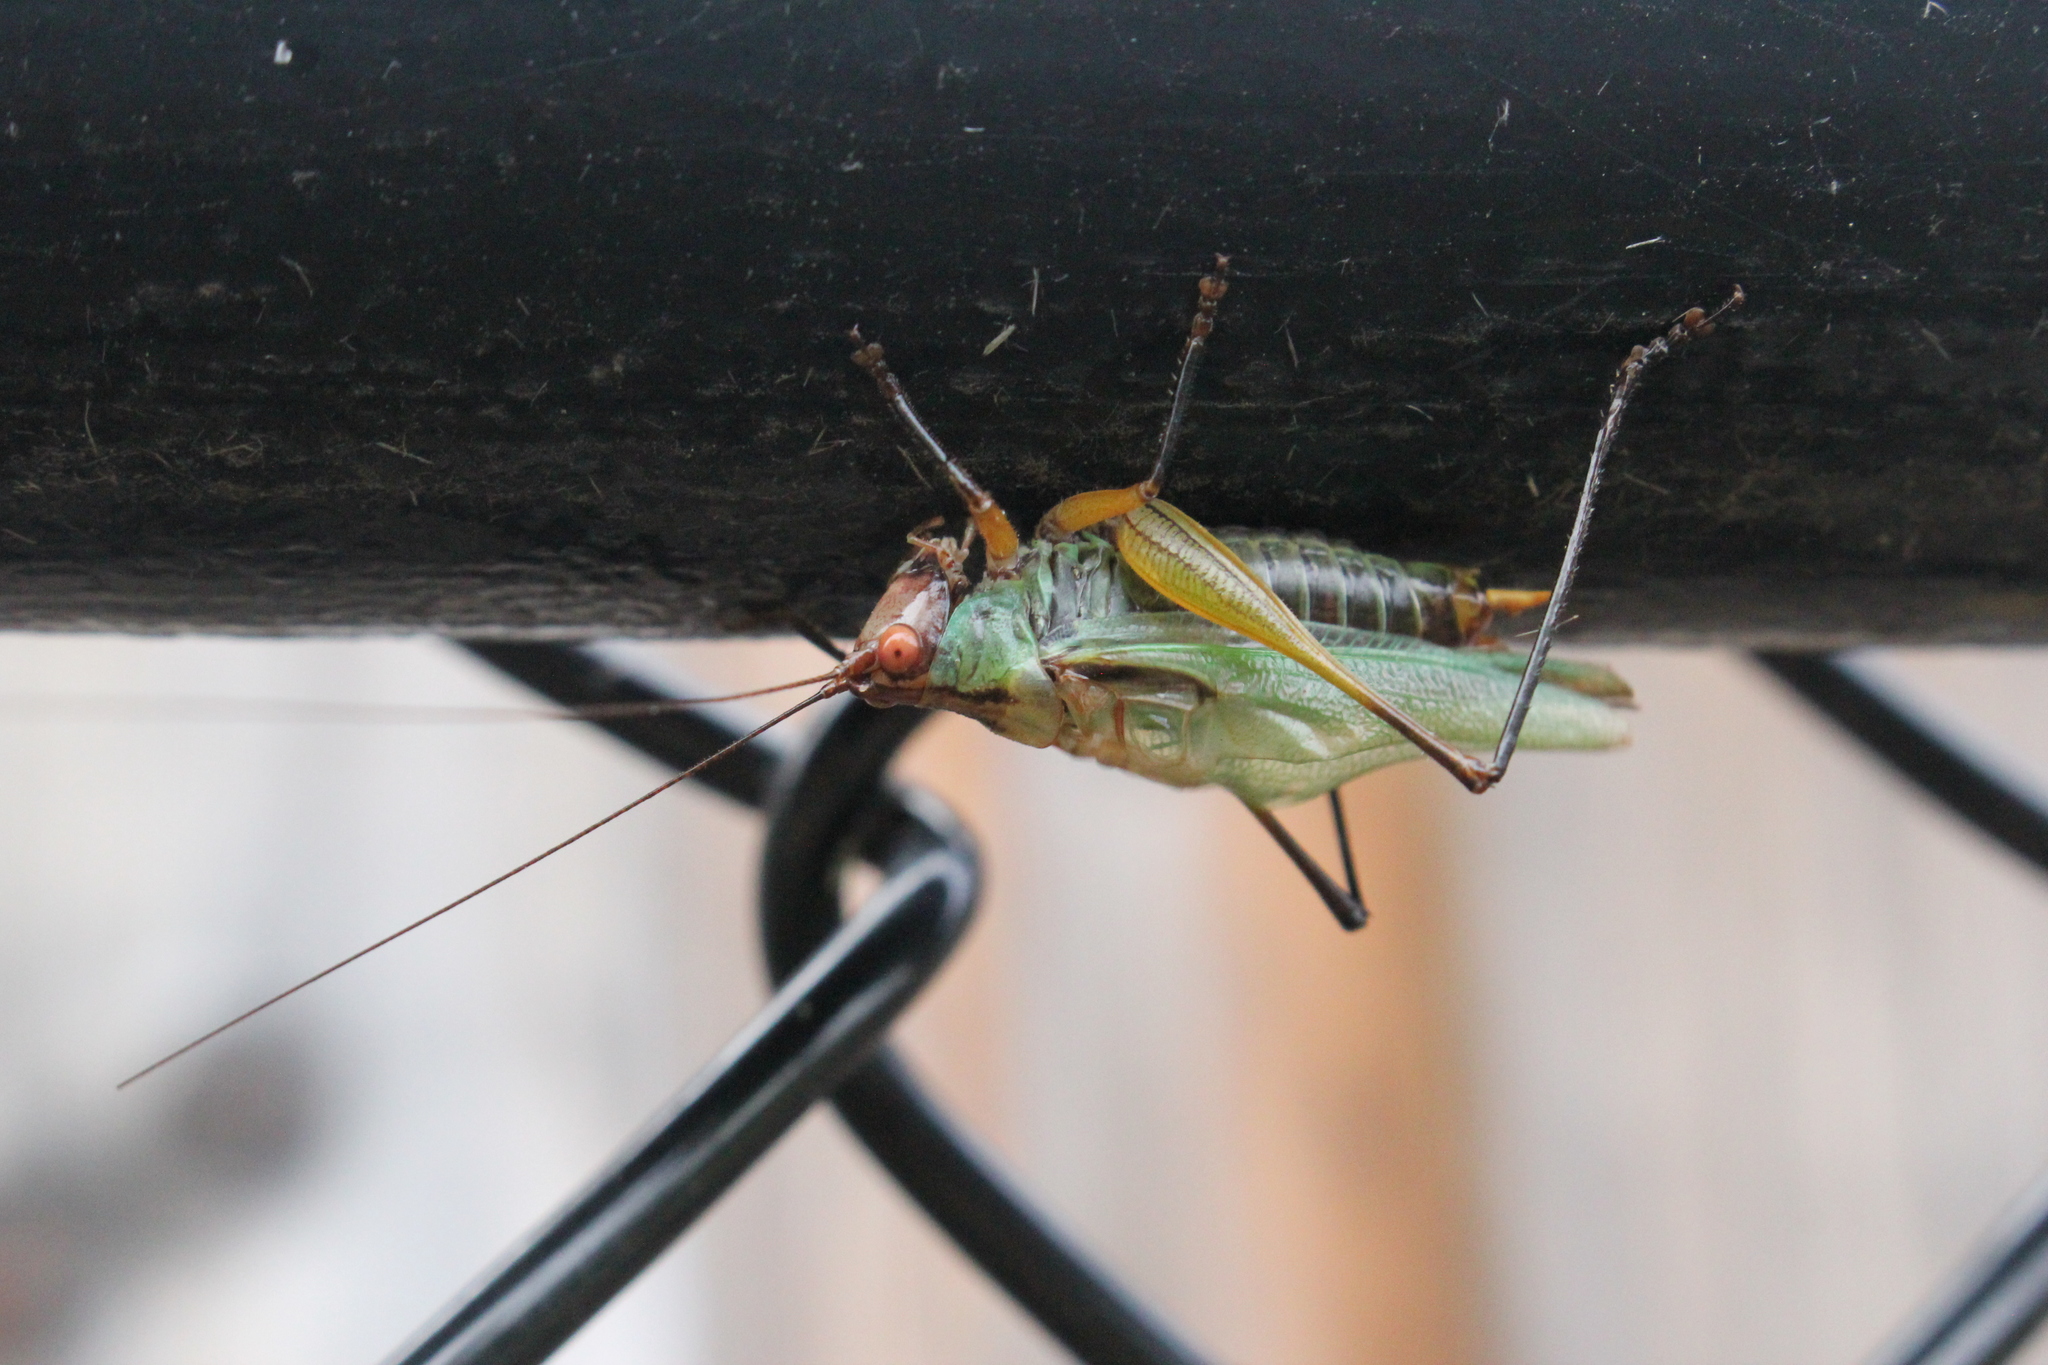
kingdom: Animalia
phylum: Arthropoda
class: Insecta
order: Orthoptera
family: Tettigoniidae
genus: Orchelimum
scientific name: Orchelimum nigripes
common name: Black-legged meadow katydid
